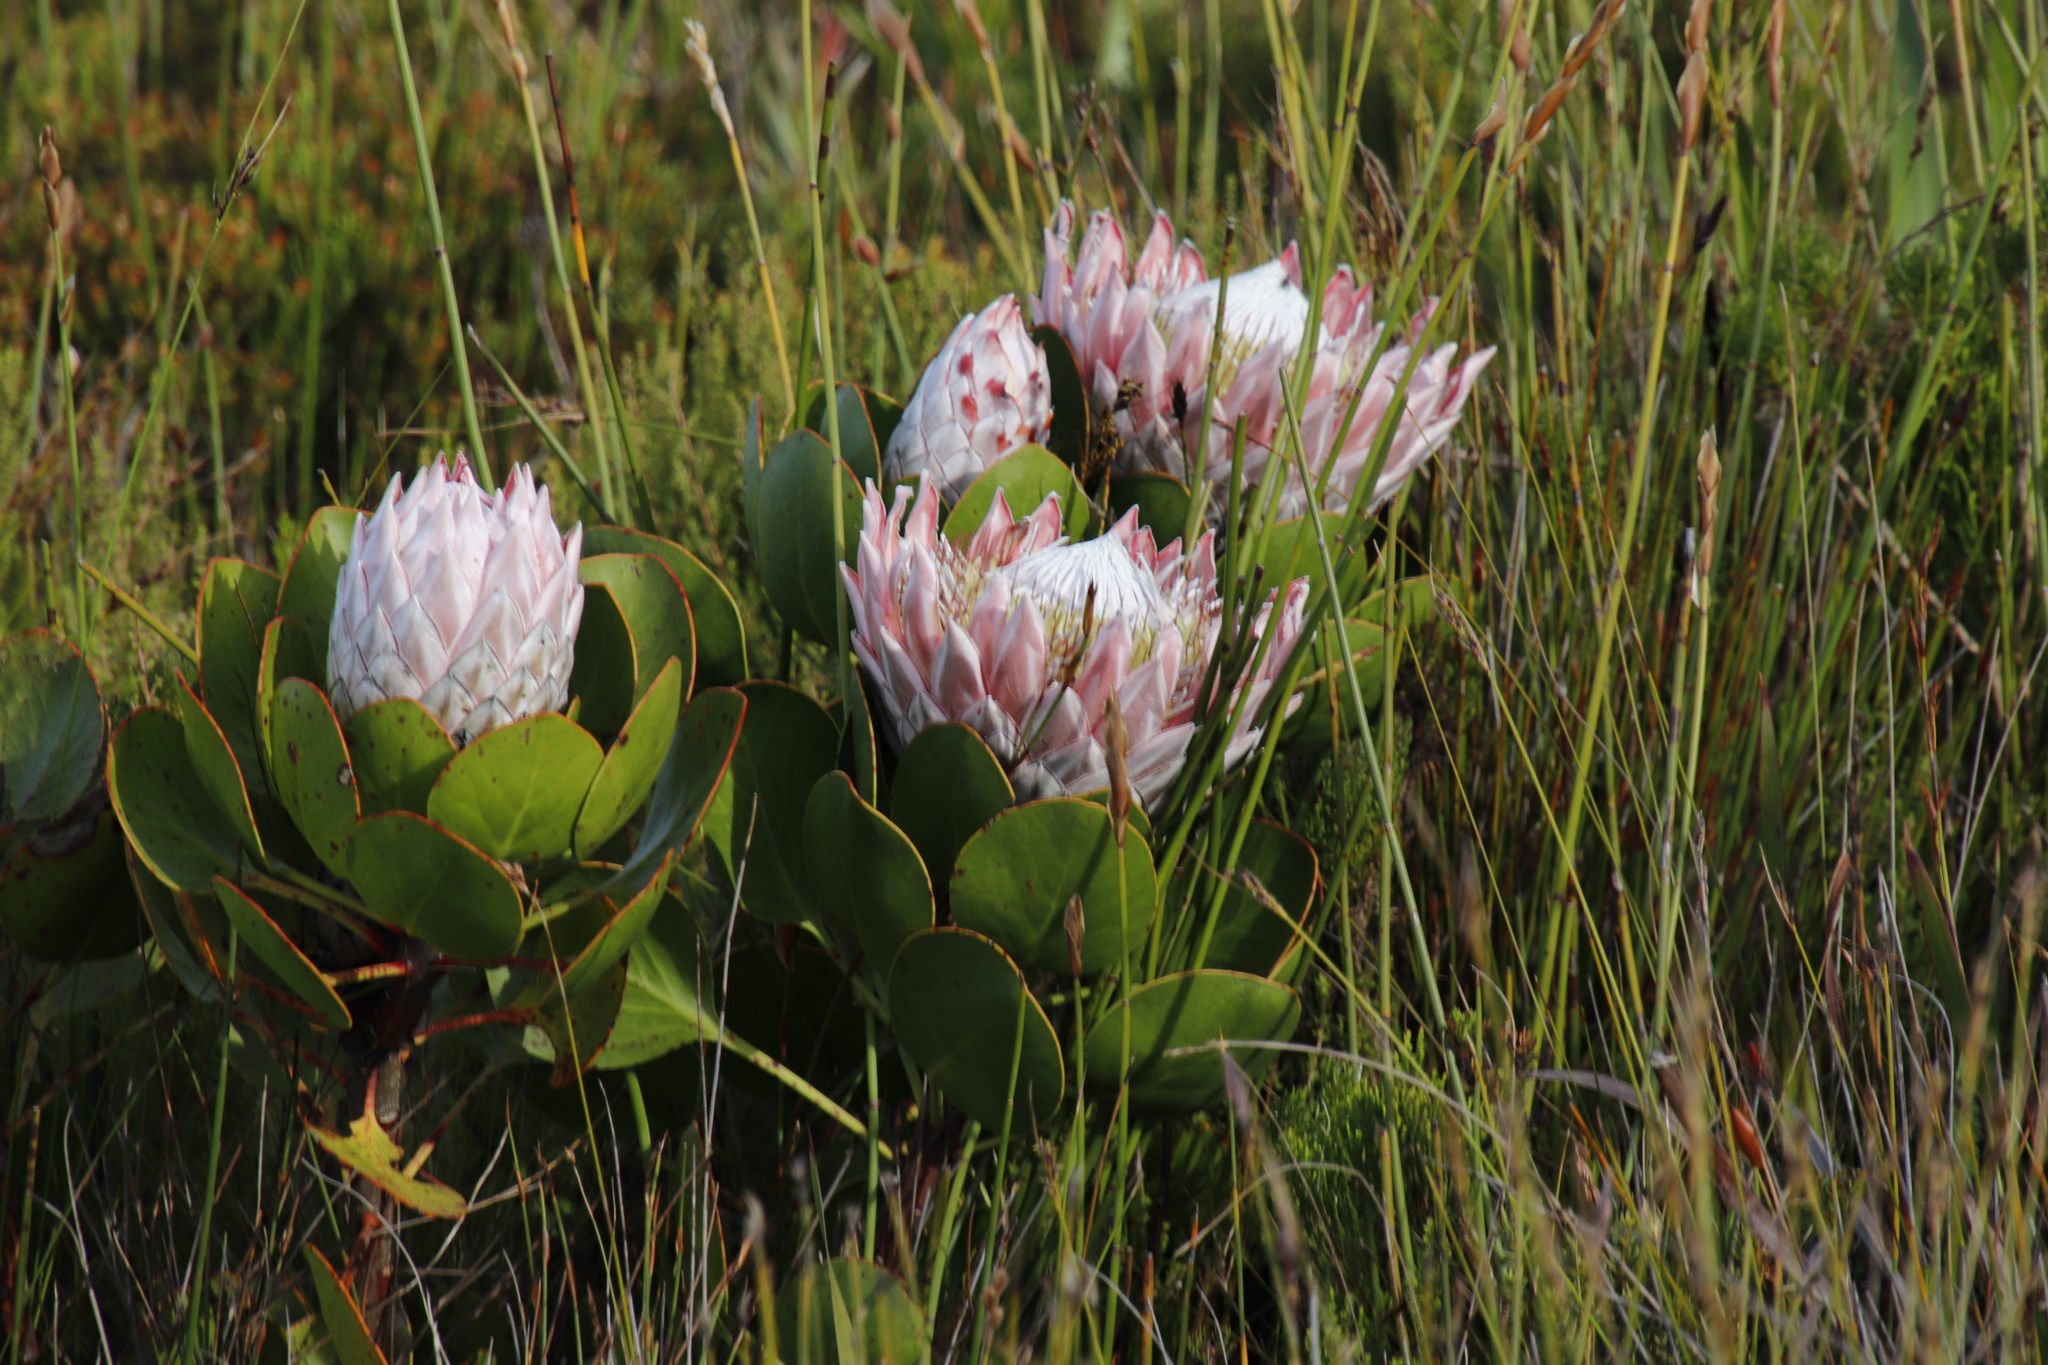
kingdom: Plantae
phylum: Tracheophyta
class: Magnoliopsida
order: Proteales
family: Proteaceae
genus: Protea
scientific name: Protea cynaroides
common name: King protea
